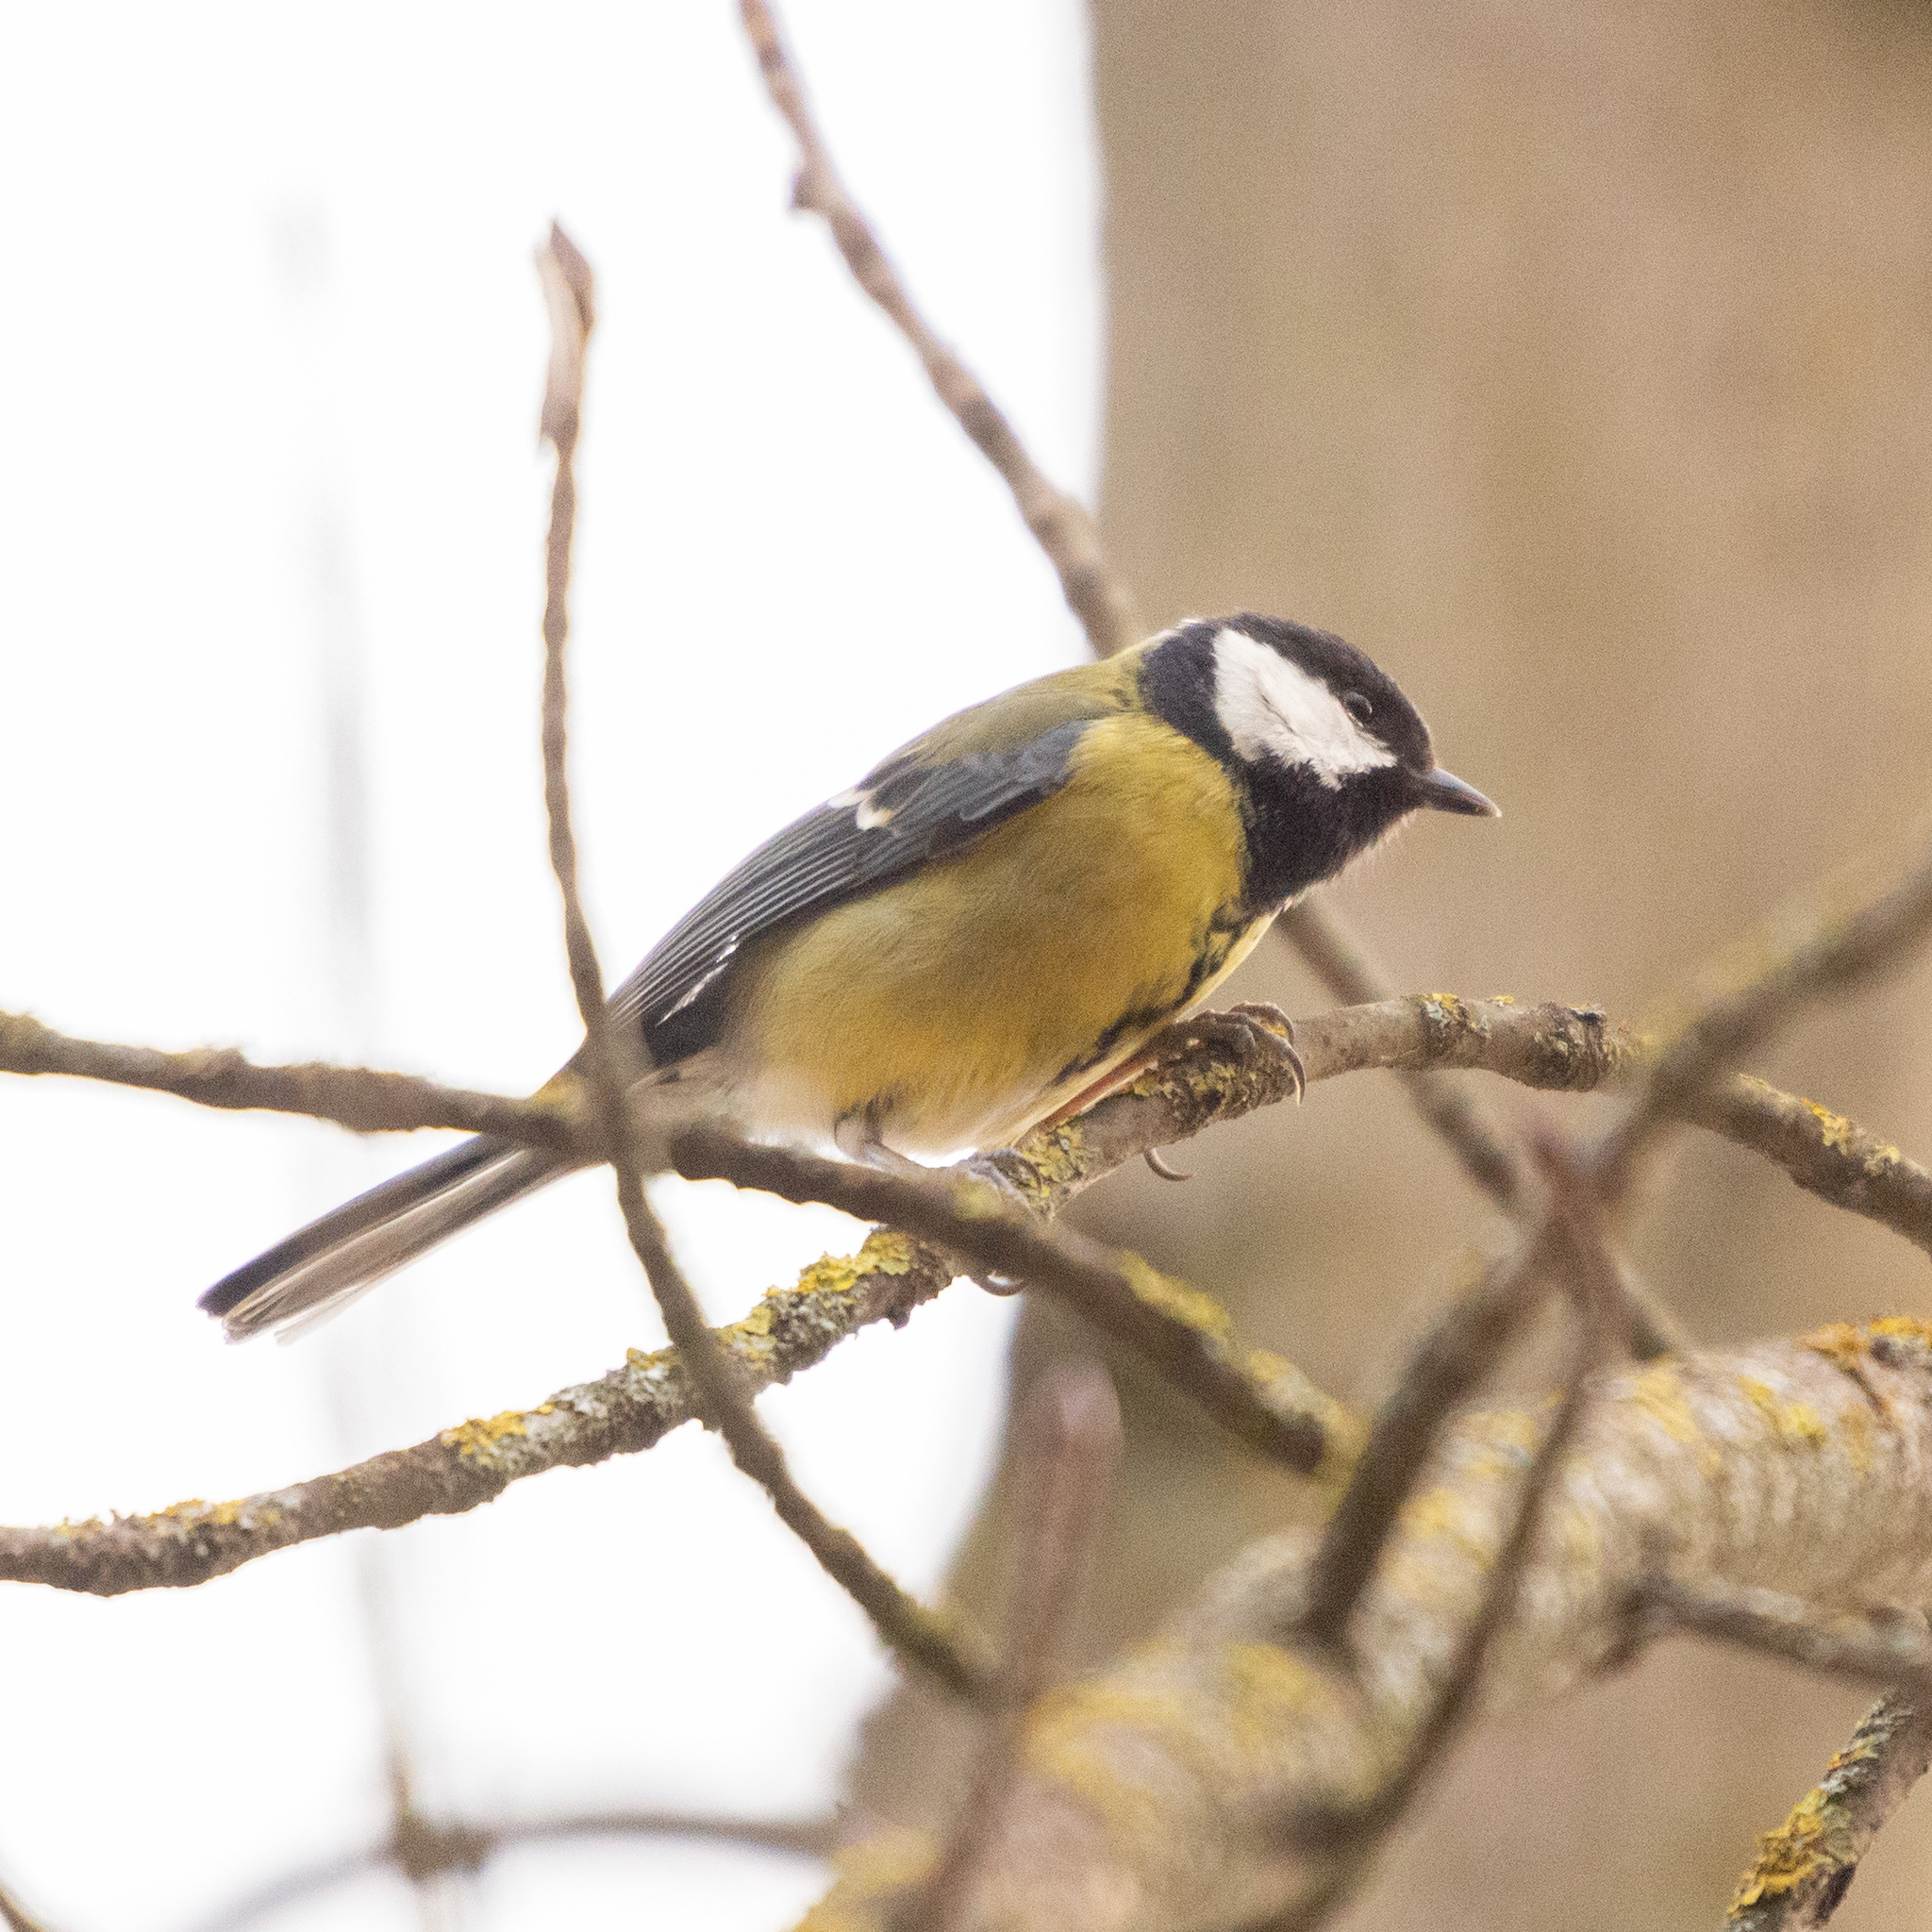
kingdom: Animalia
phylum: Chordata
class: Aves
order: Passeriformes
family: Paridae
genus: Parus
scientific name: Parus major
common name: Great tit
